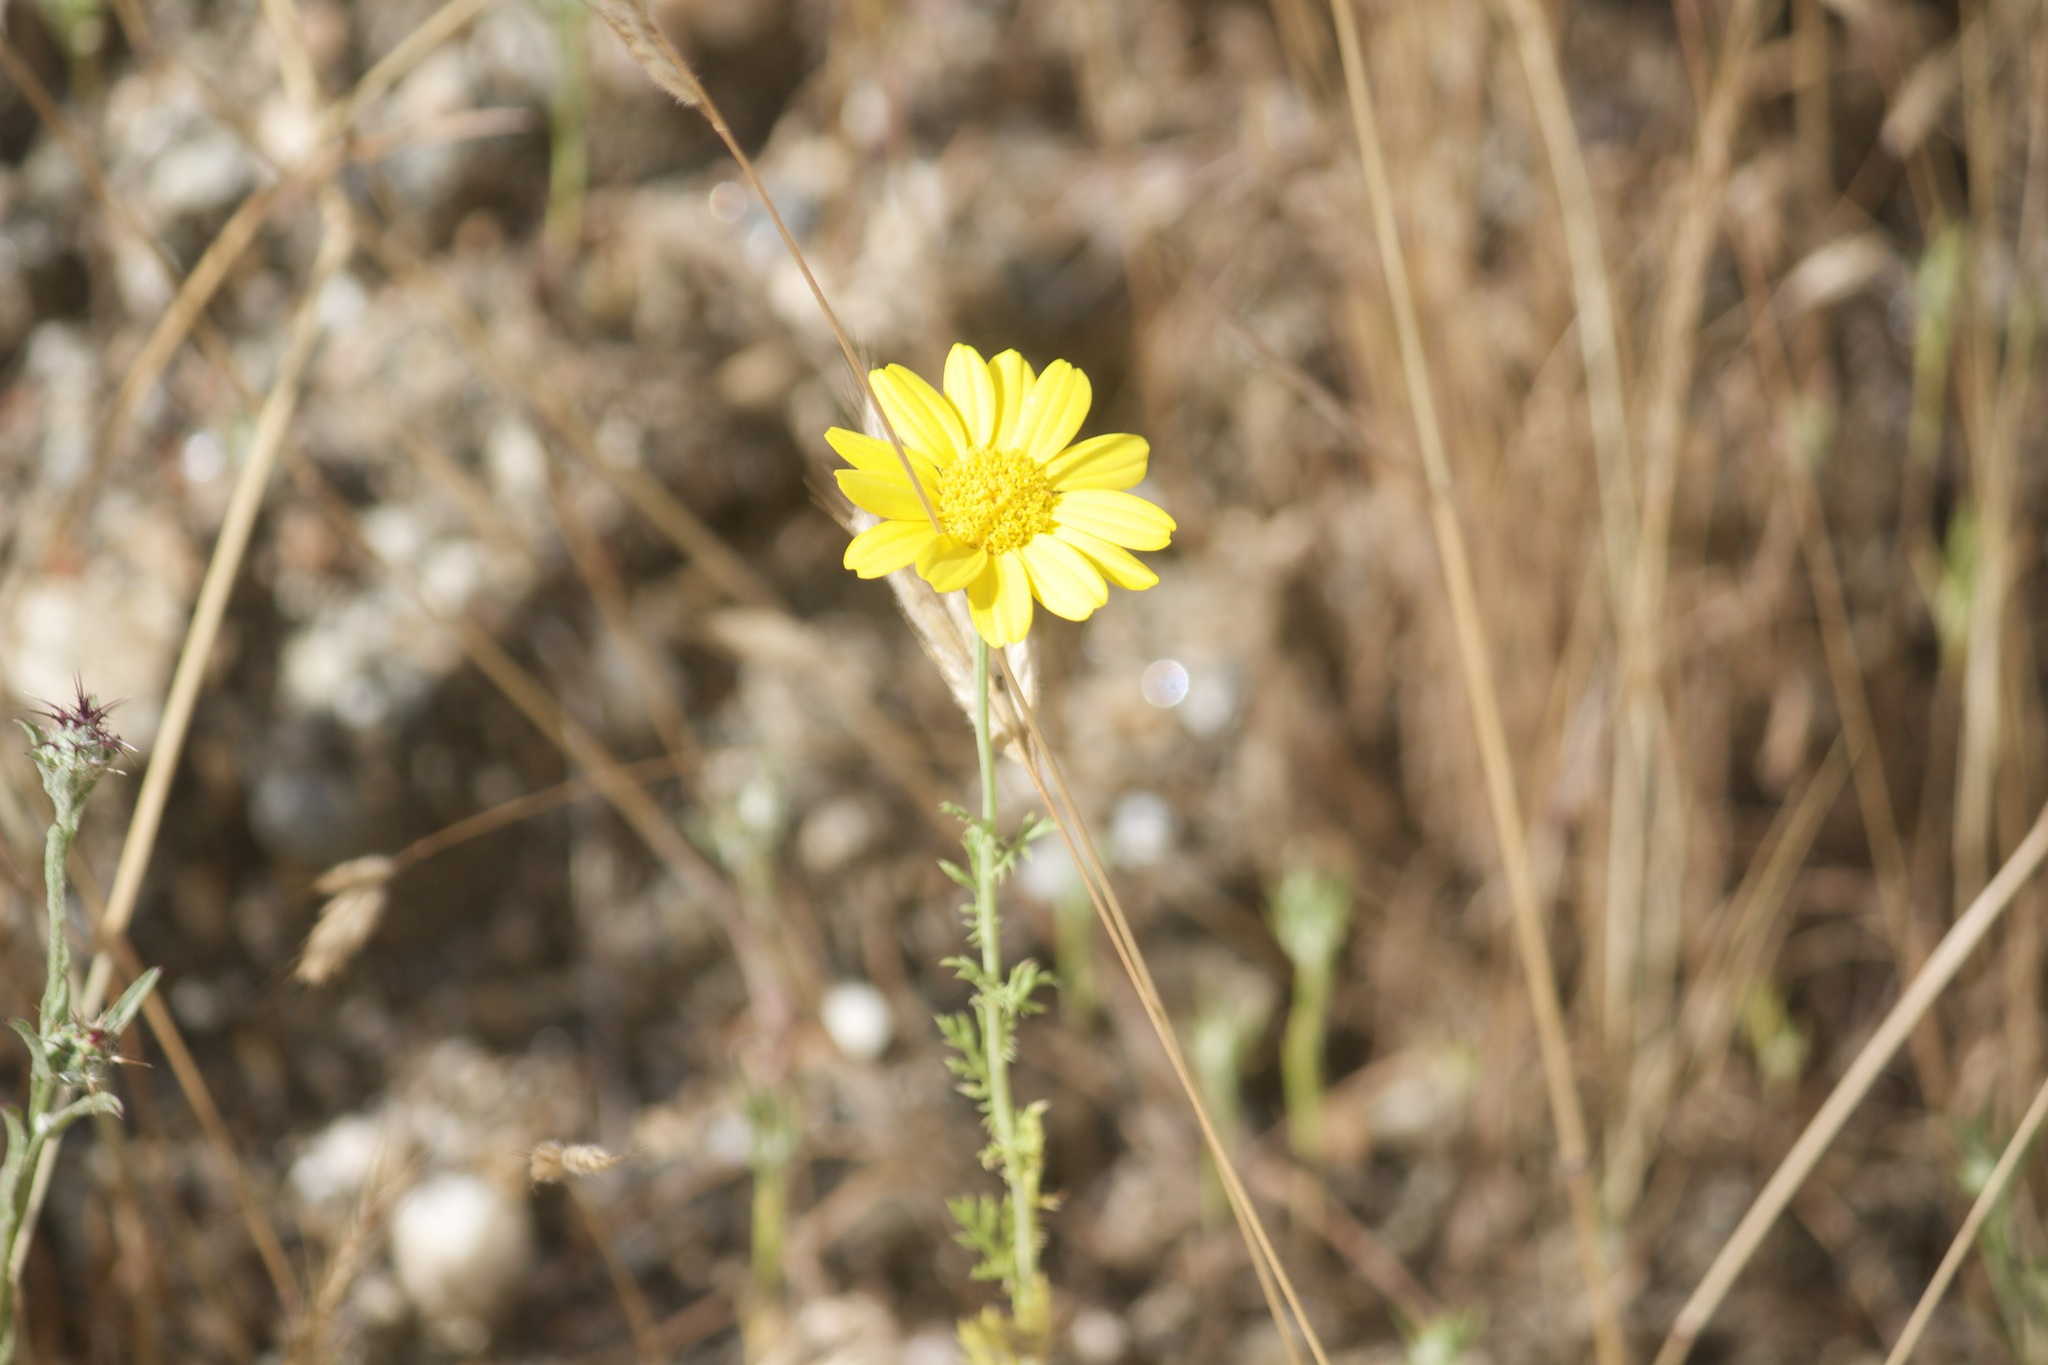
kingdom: Plantae
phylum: Tracheophyta
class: Magnoliopsida
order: Asterales
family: Asteraceae
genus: Glebionis
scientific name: Glebionis coronaria
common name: Crowndaisy
